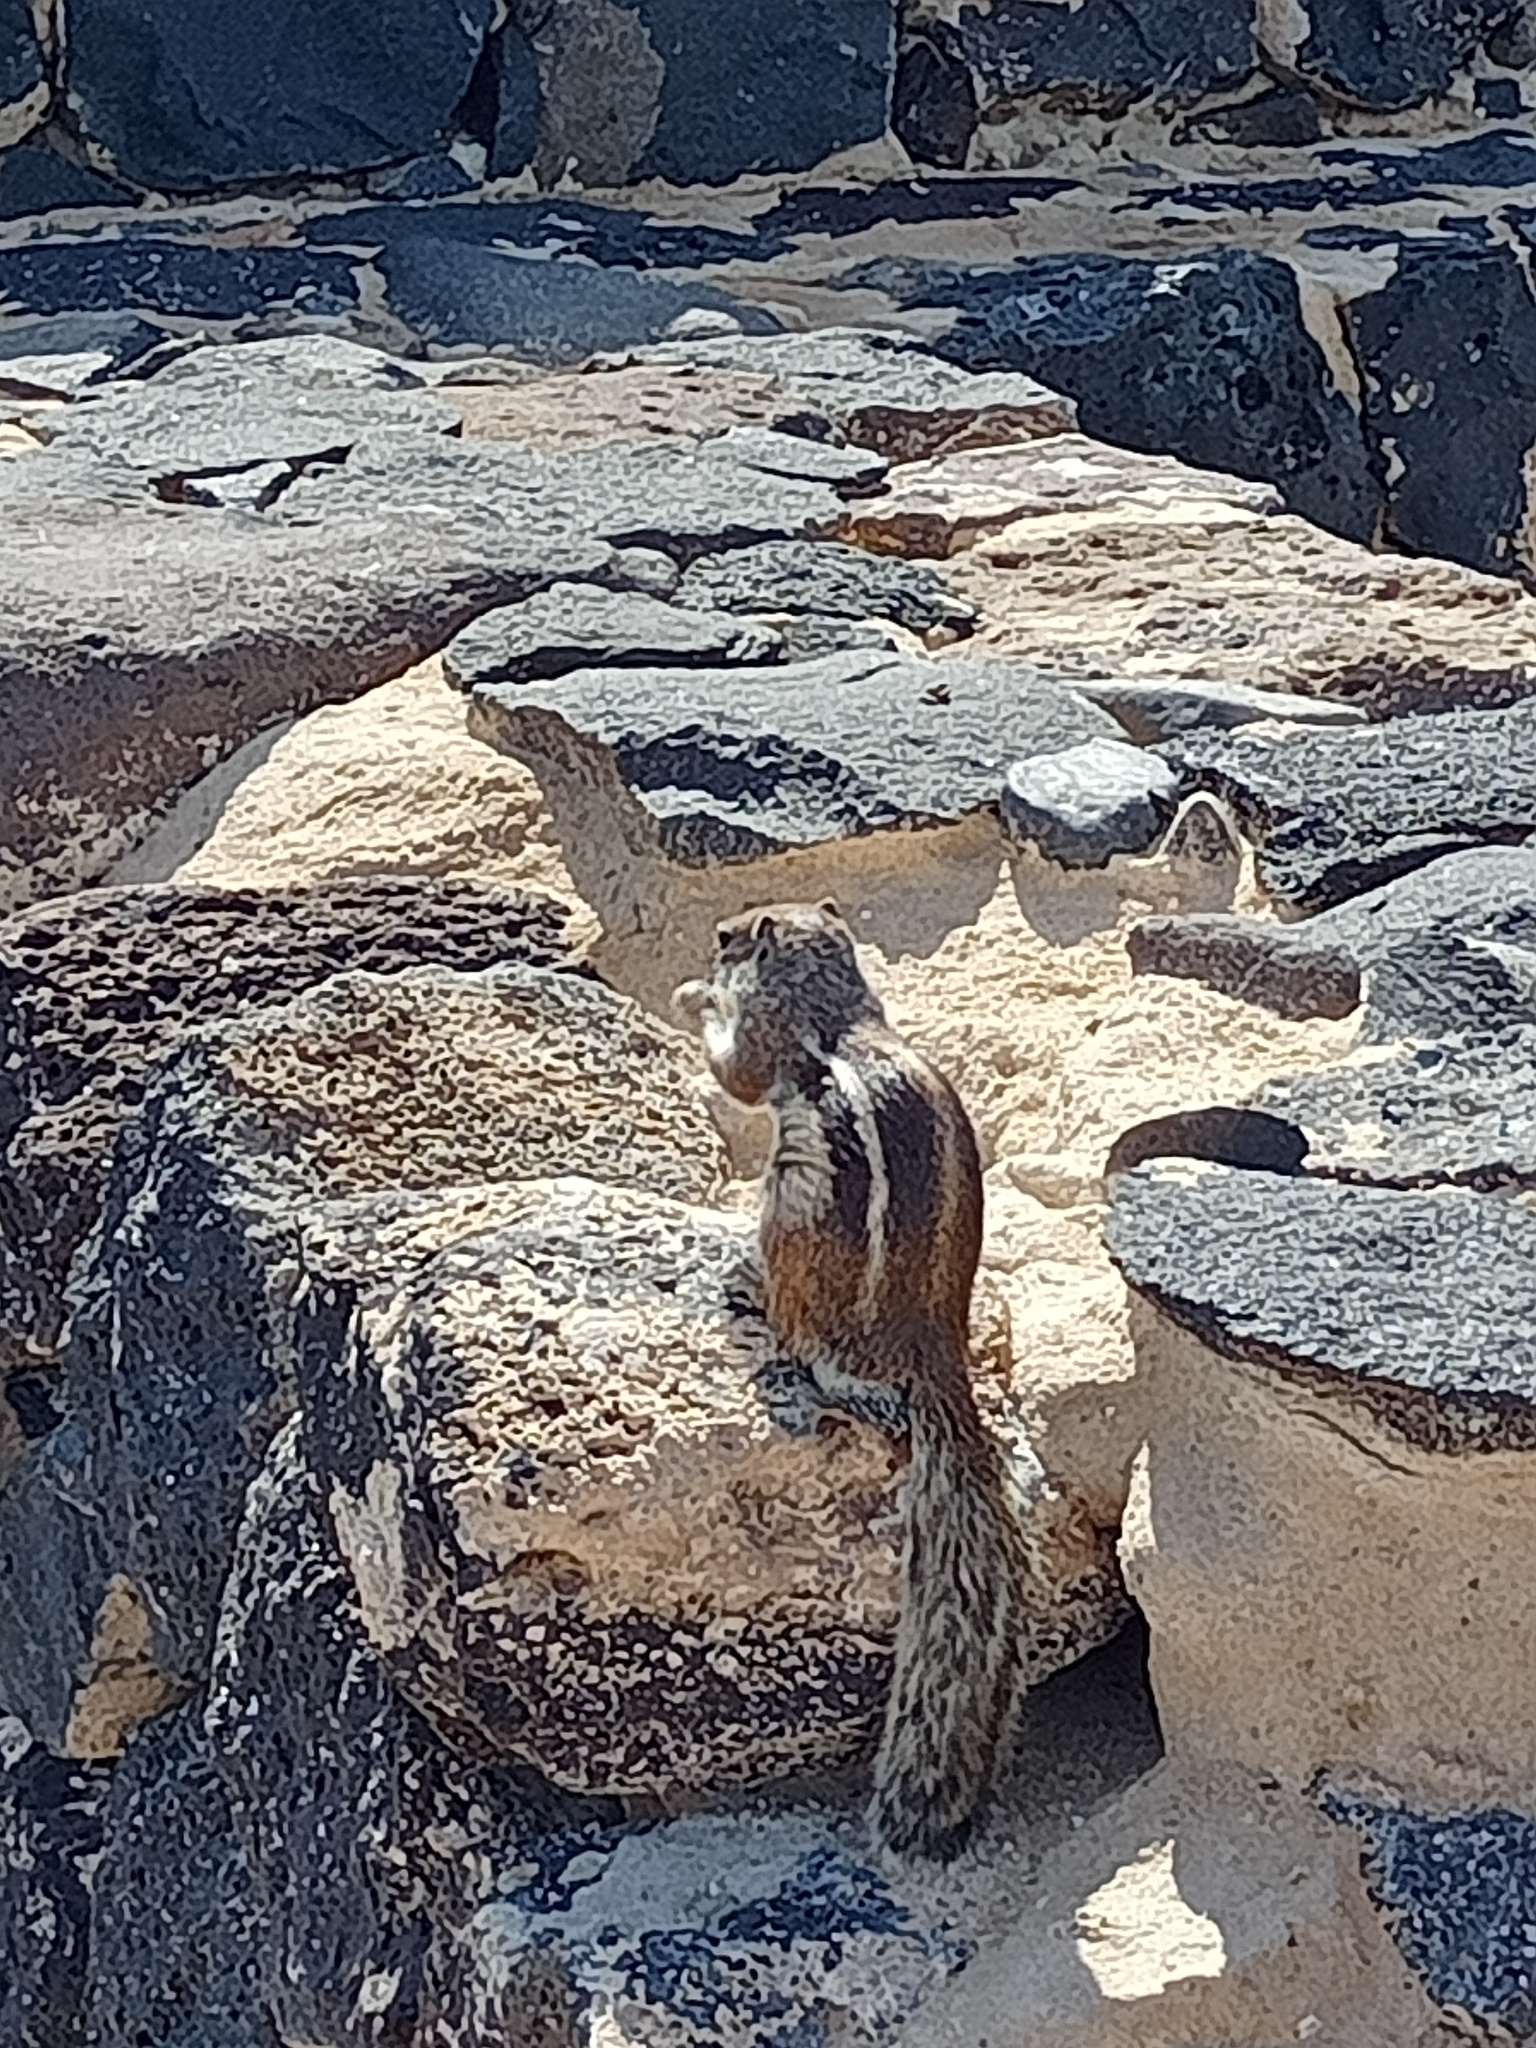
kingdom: Animalia
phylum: Chordata
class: Mammalia
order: Rodentia
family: Sciuridae
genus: Atlantoxerus
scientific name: Atlantoxerus getulus
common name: Barbary ground squirrel
